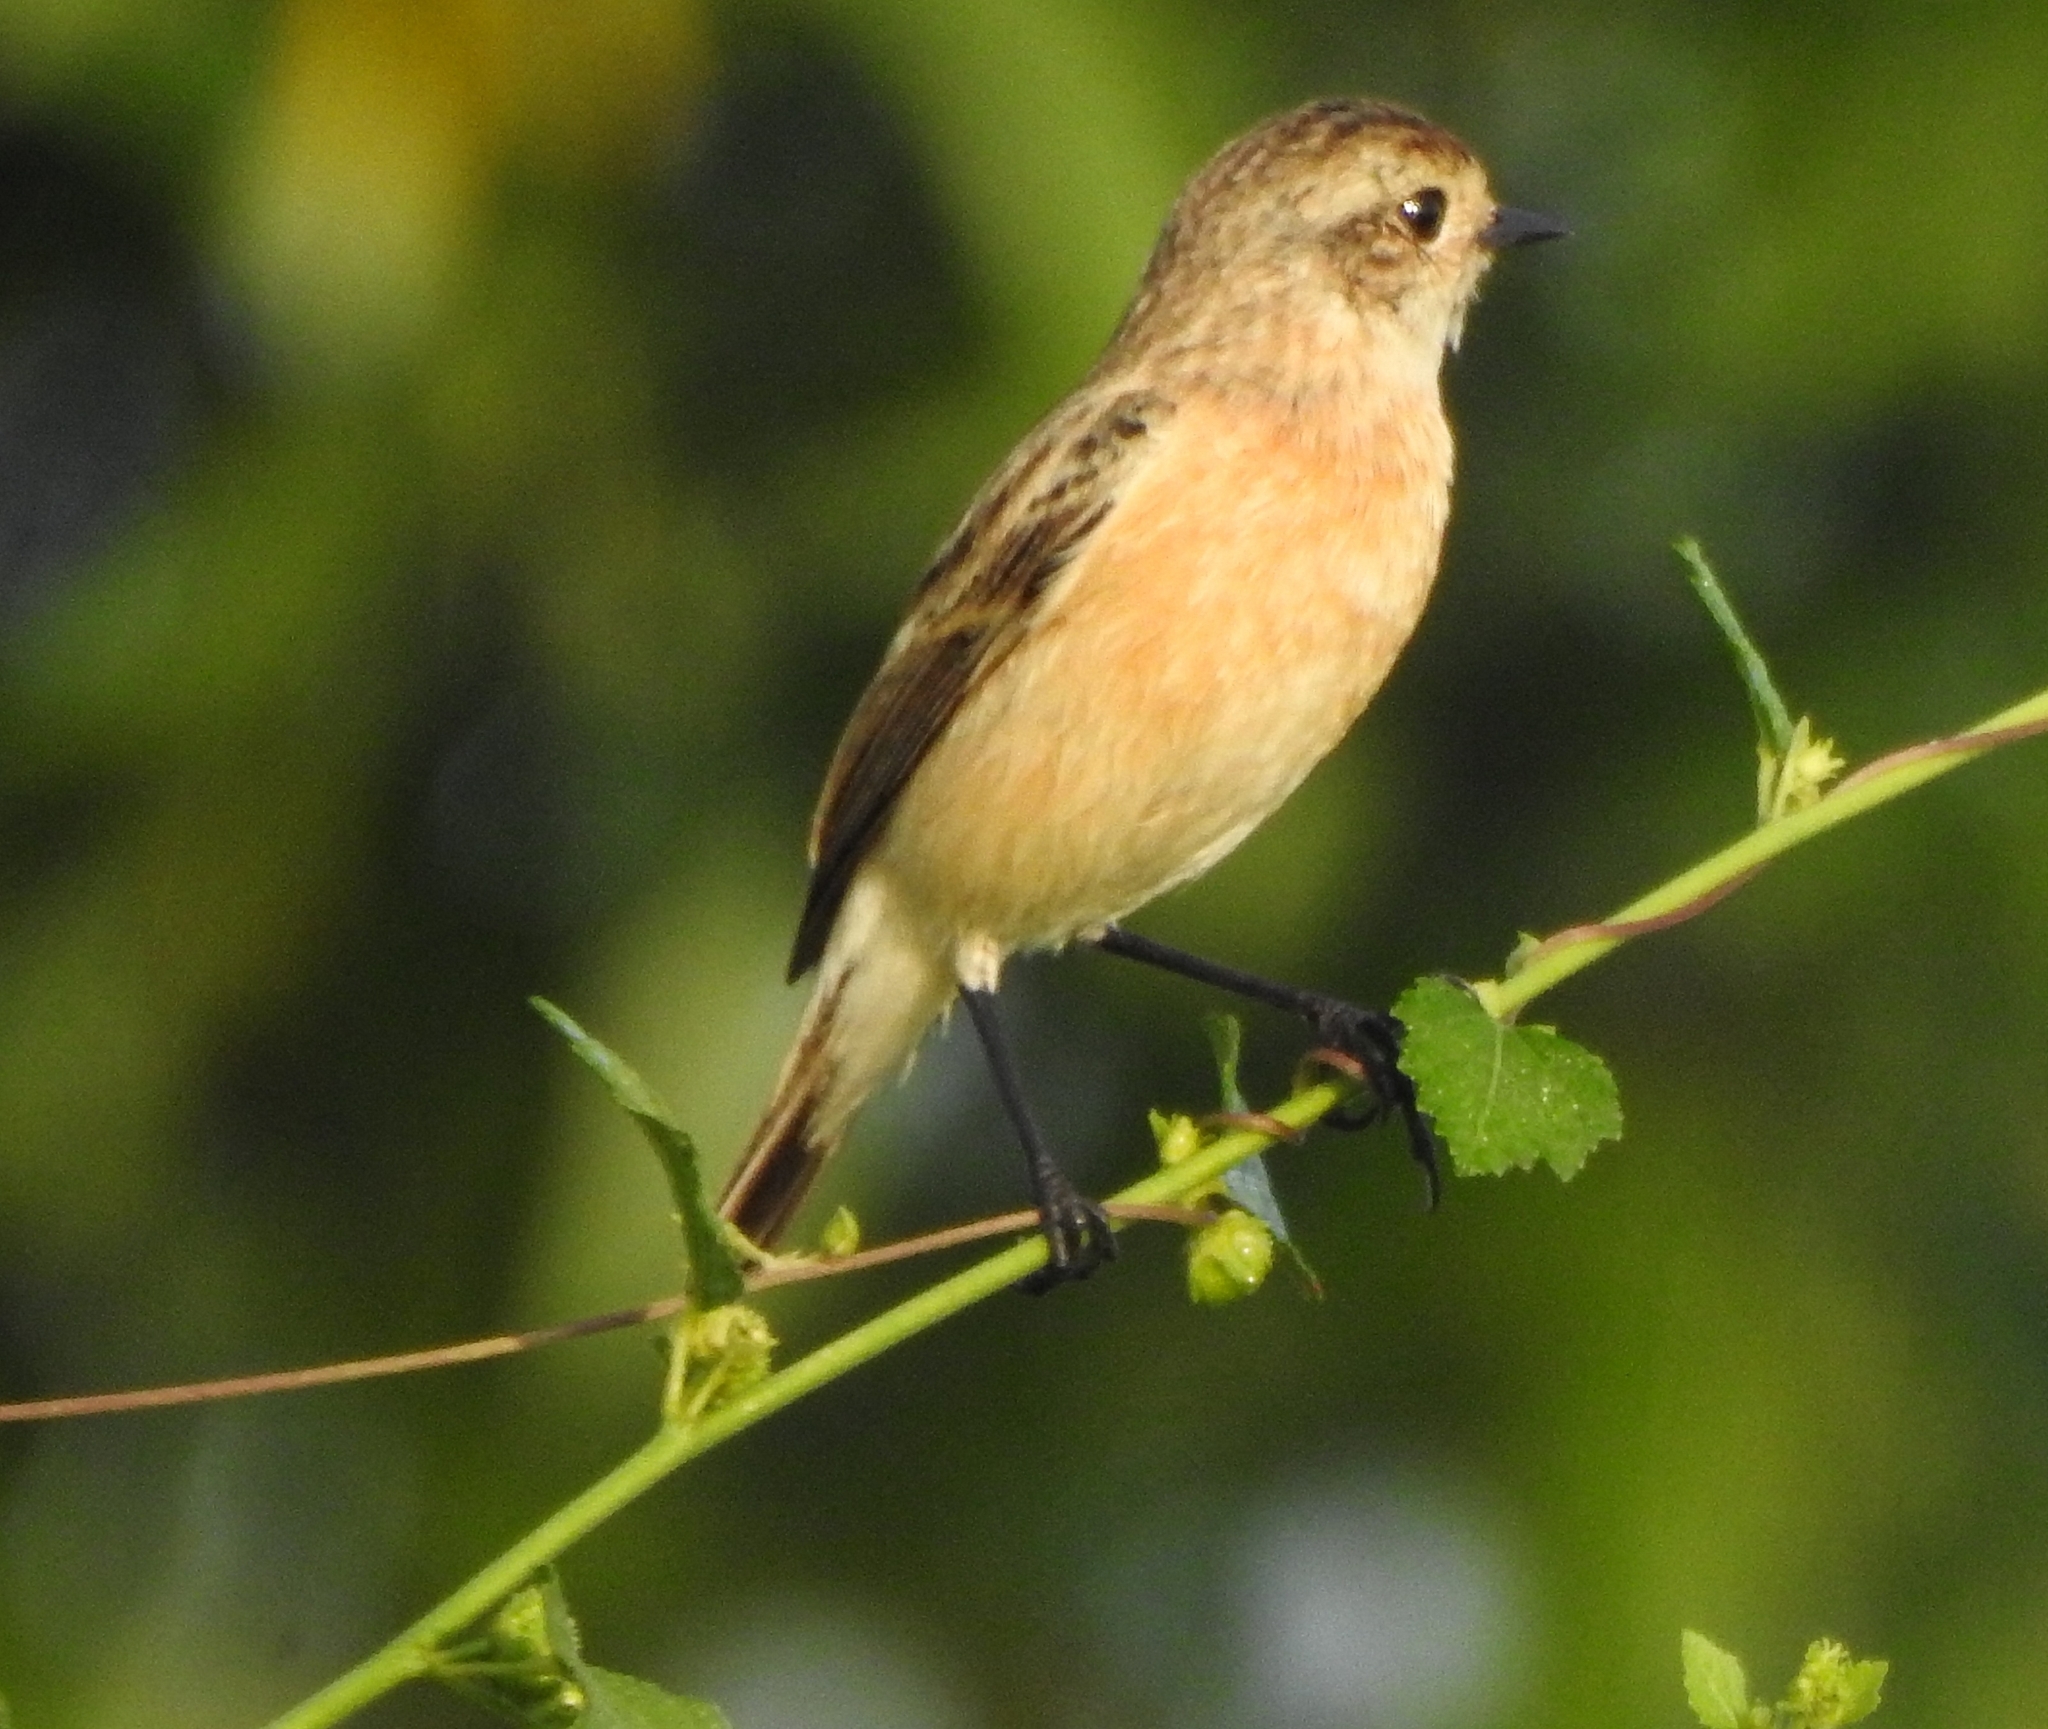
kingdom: Animalia
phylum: Chordata
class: Aves
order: Passeriformes
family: Muscicapidae
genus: Saxicola
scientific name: Saxicola maurus
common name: Siberian stonechat
